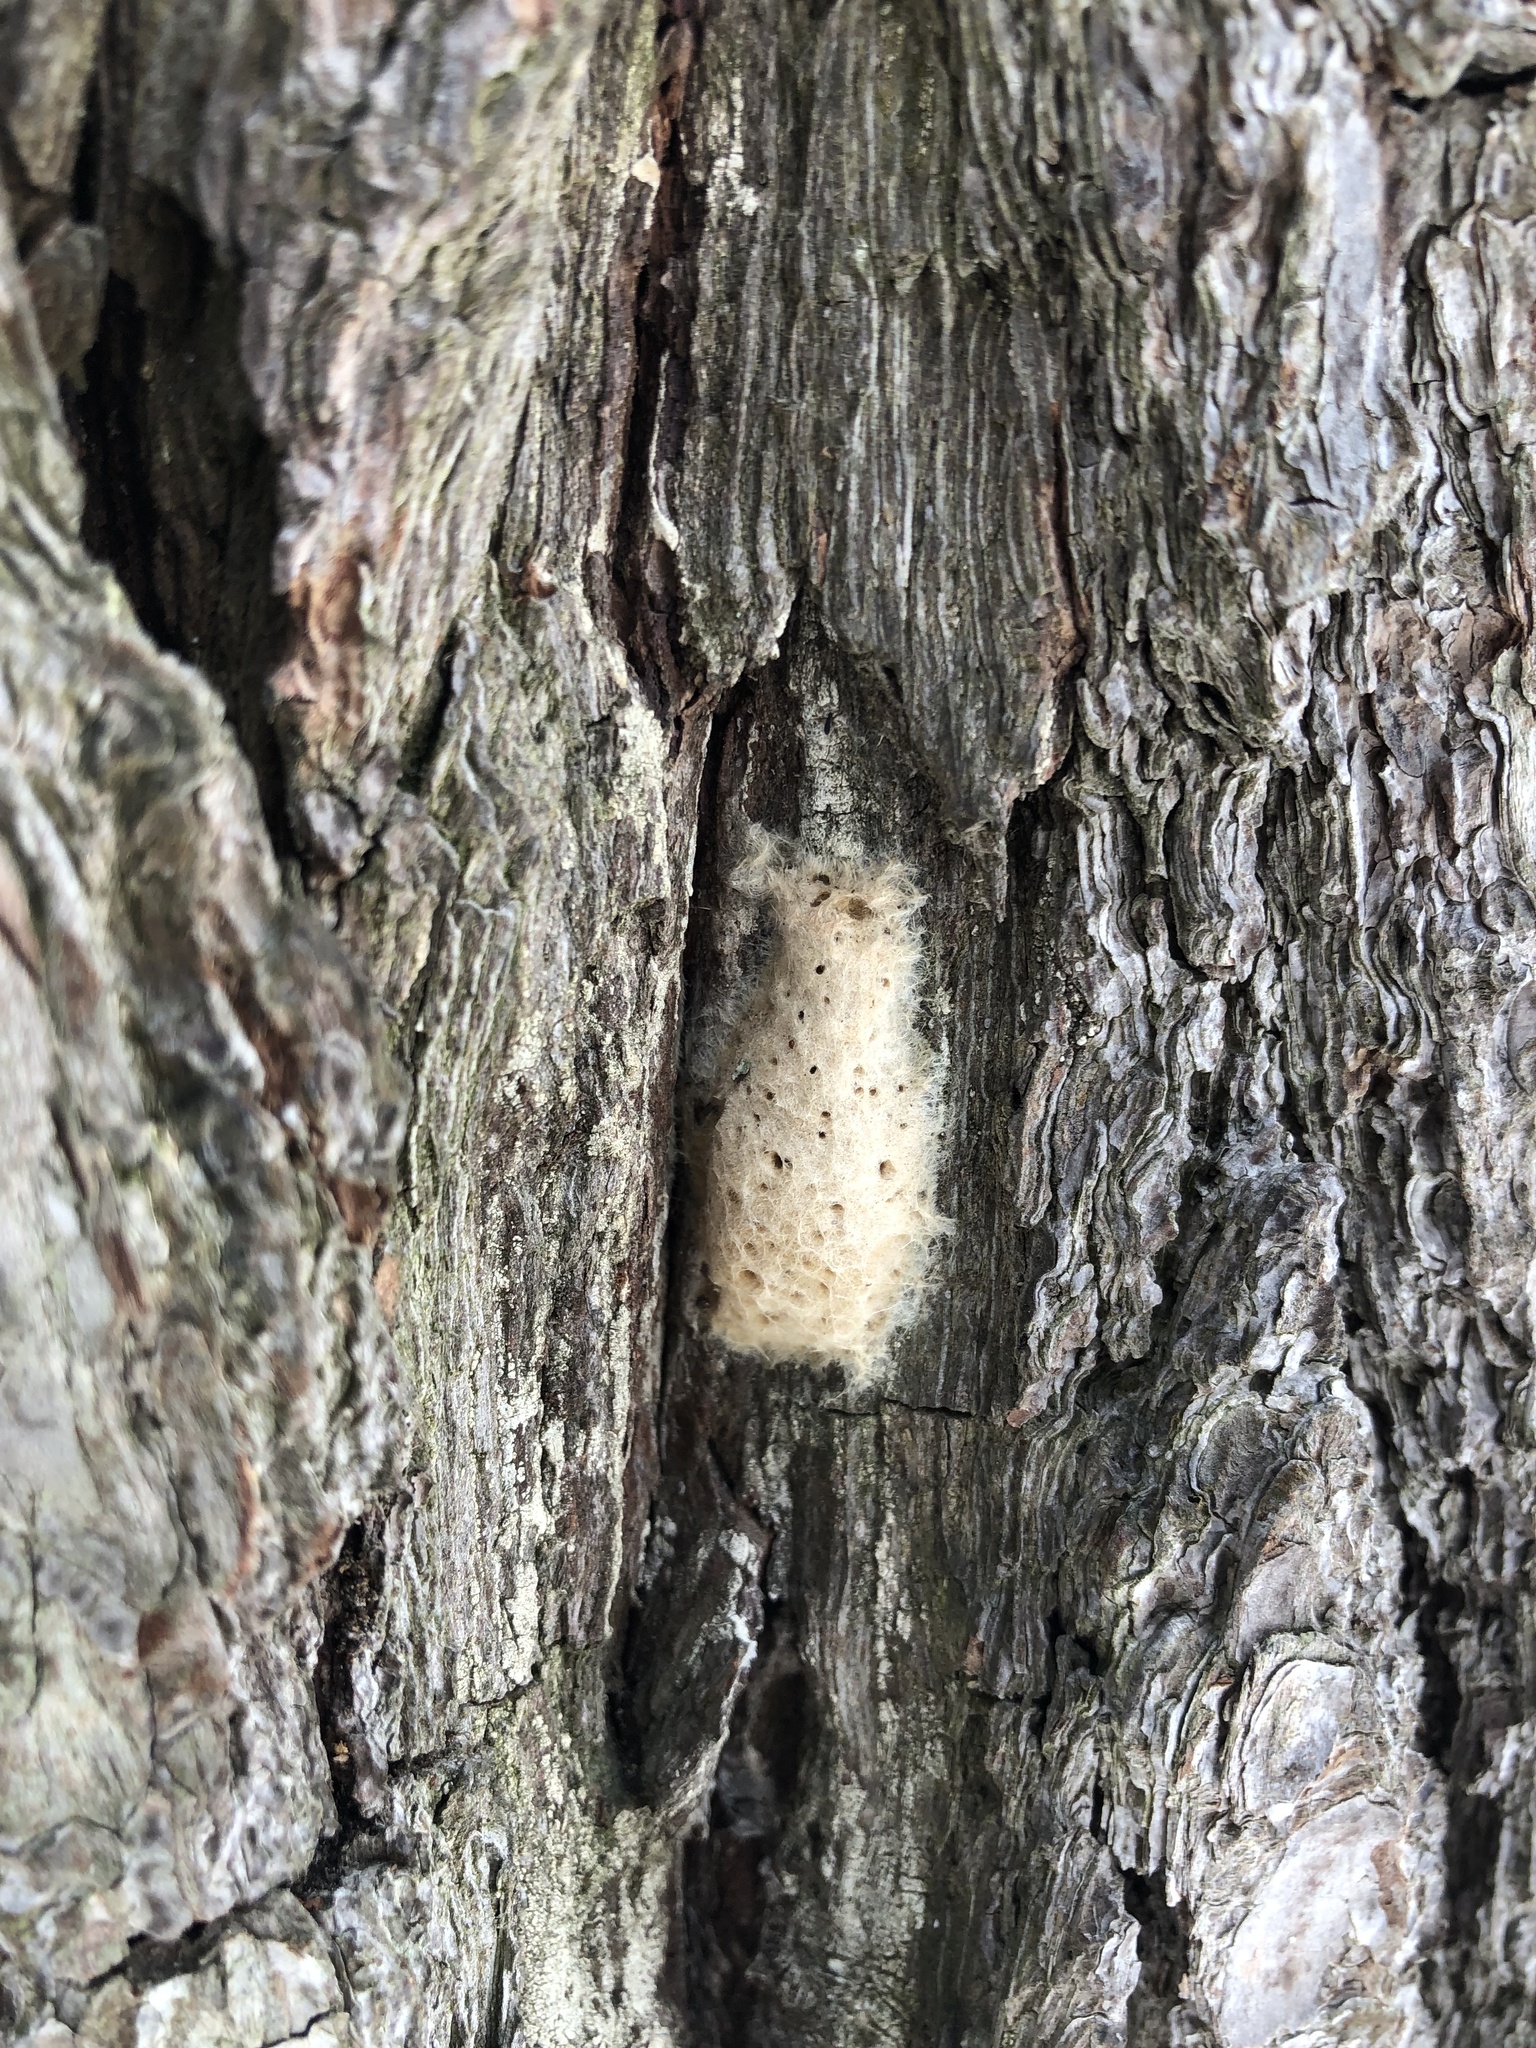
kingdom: Animalia
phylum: Arthropoda
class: Insecta
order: Lepidoptera
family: Erebidae
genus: Lymantria
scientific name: Lymantria dispar
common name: Gypsy moth
